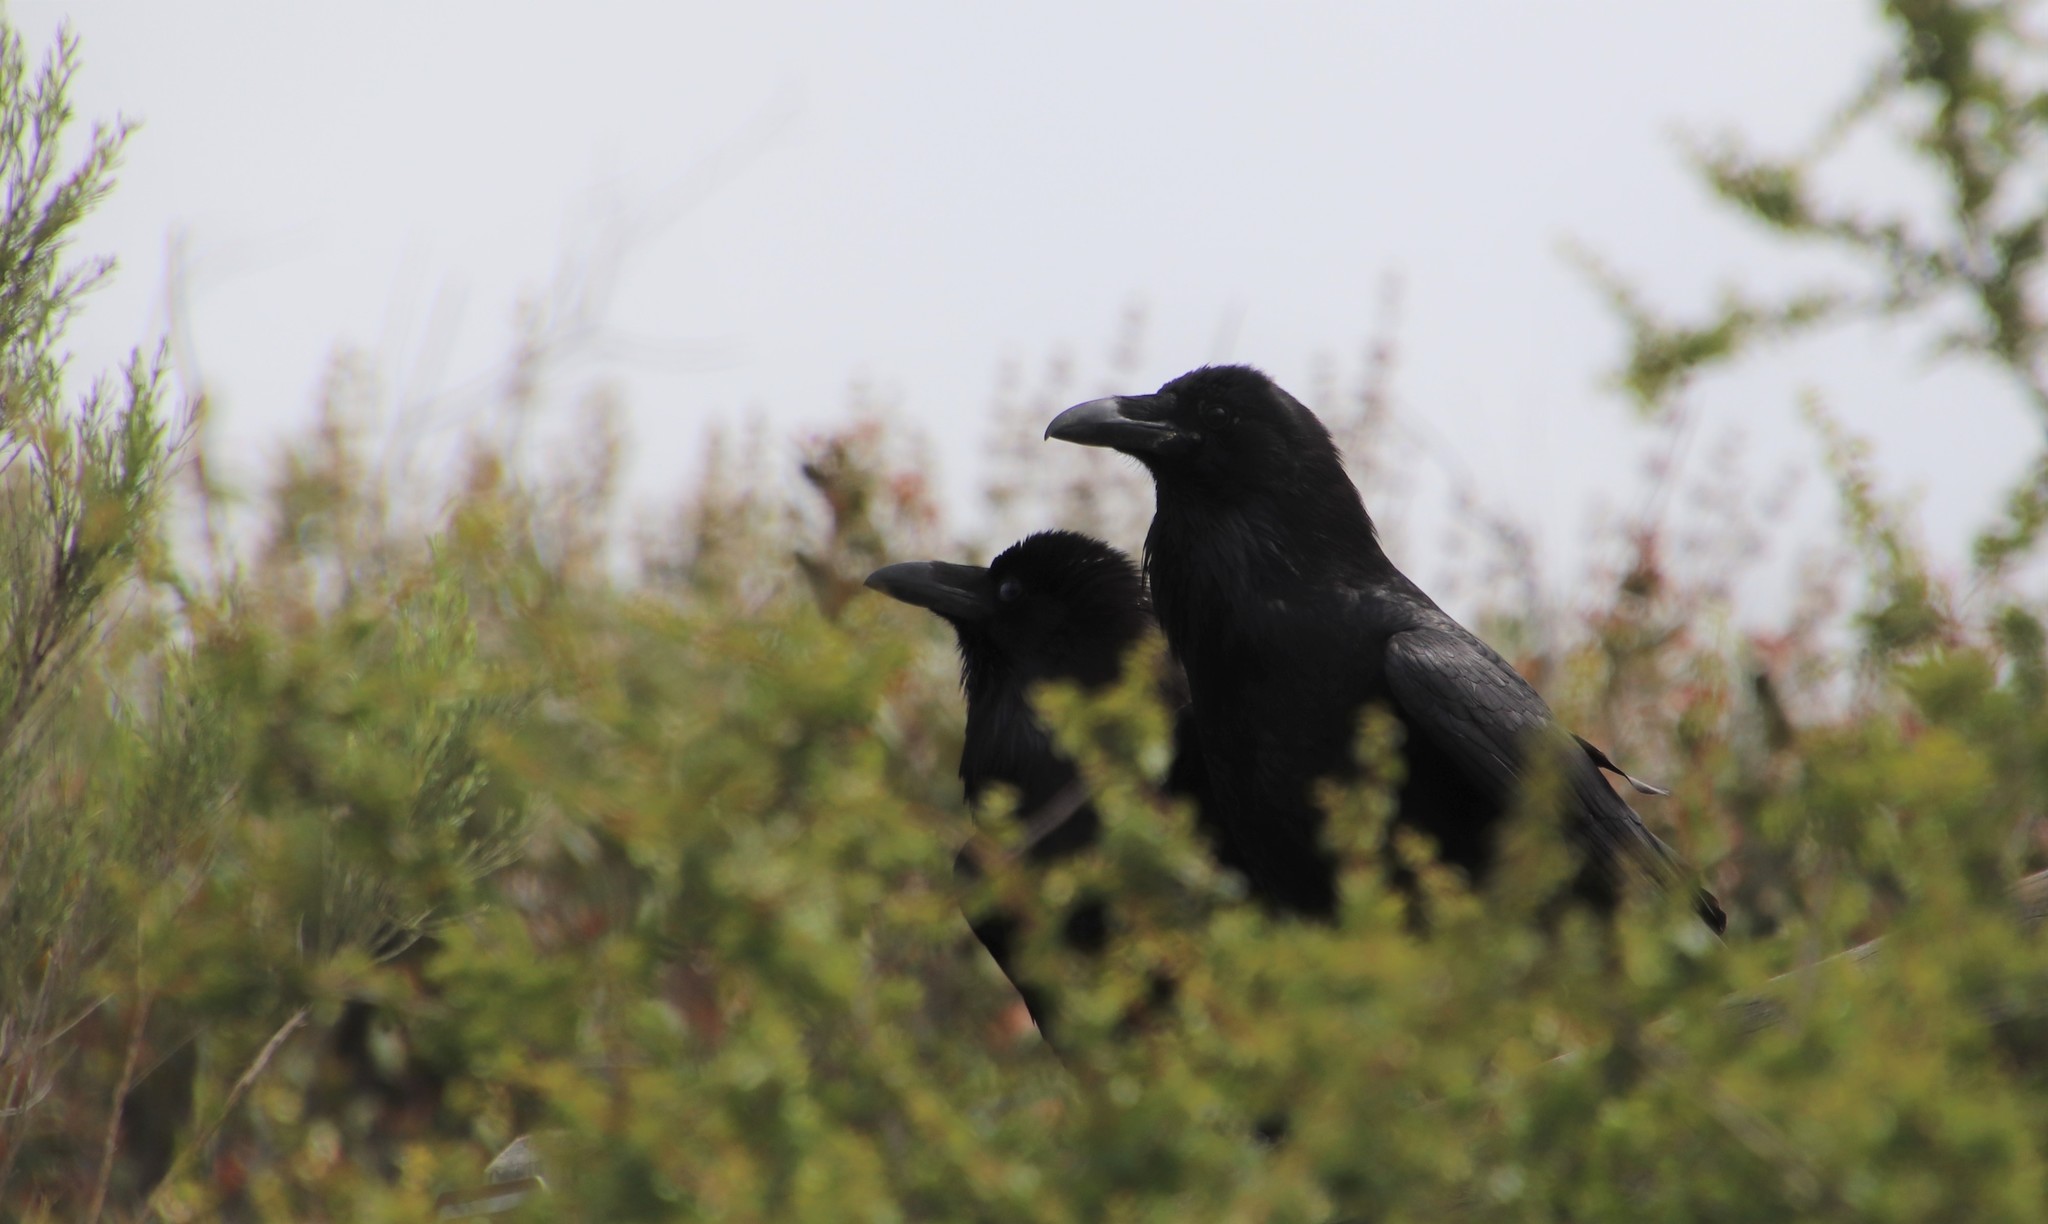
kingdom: Animalia
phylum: Chordata
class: Aves
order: Passeriformes
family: Corvidae
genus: Corvus
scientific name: Corvus corax
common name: Common raven
